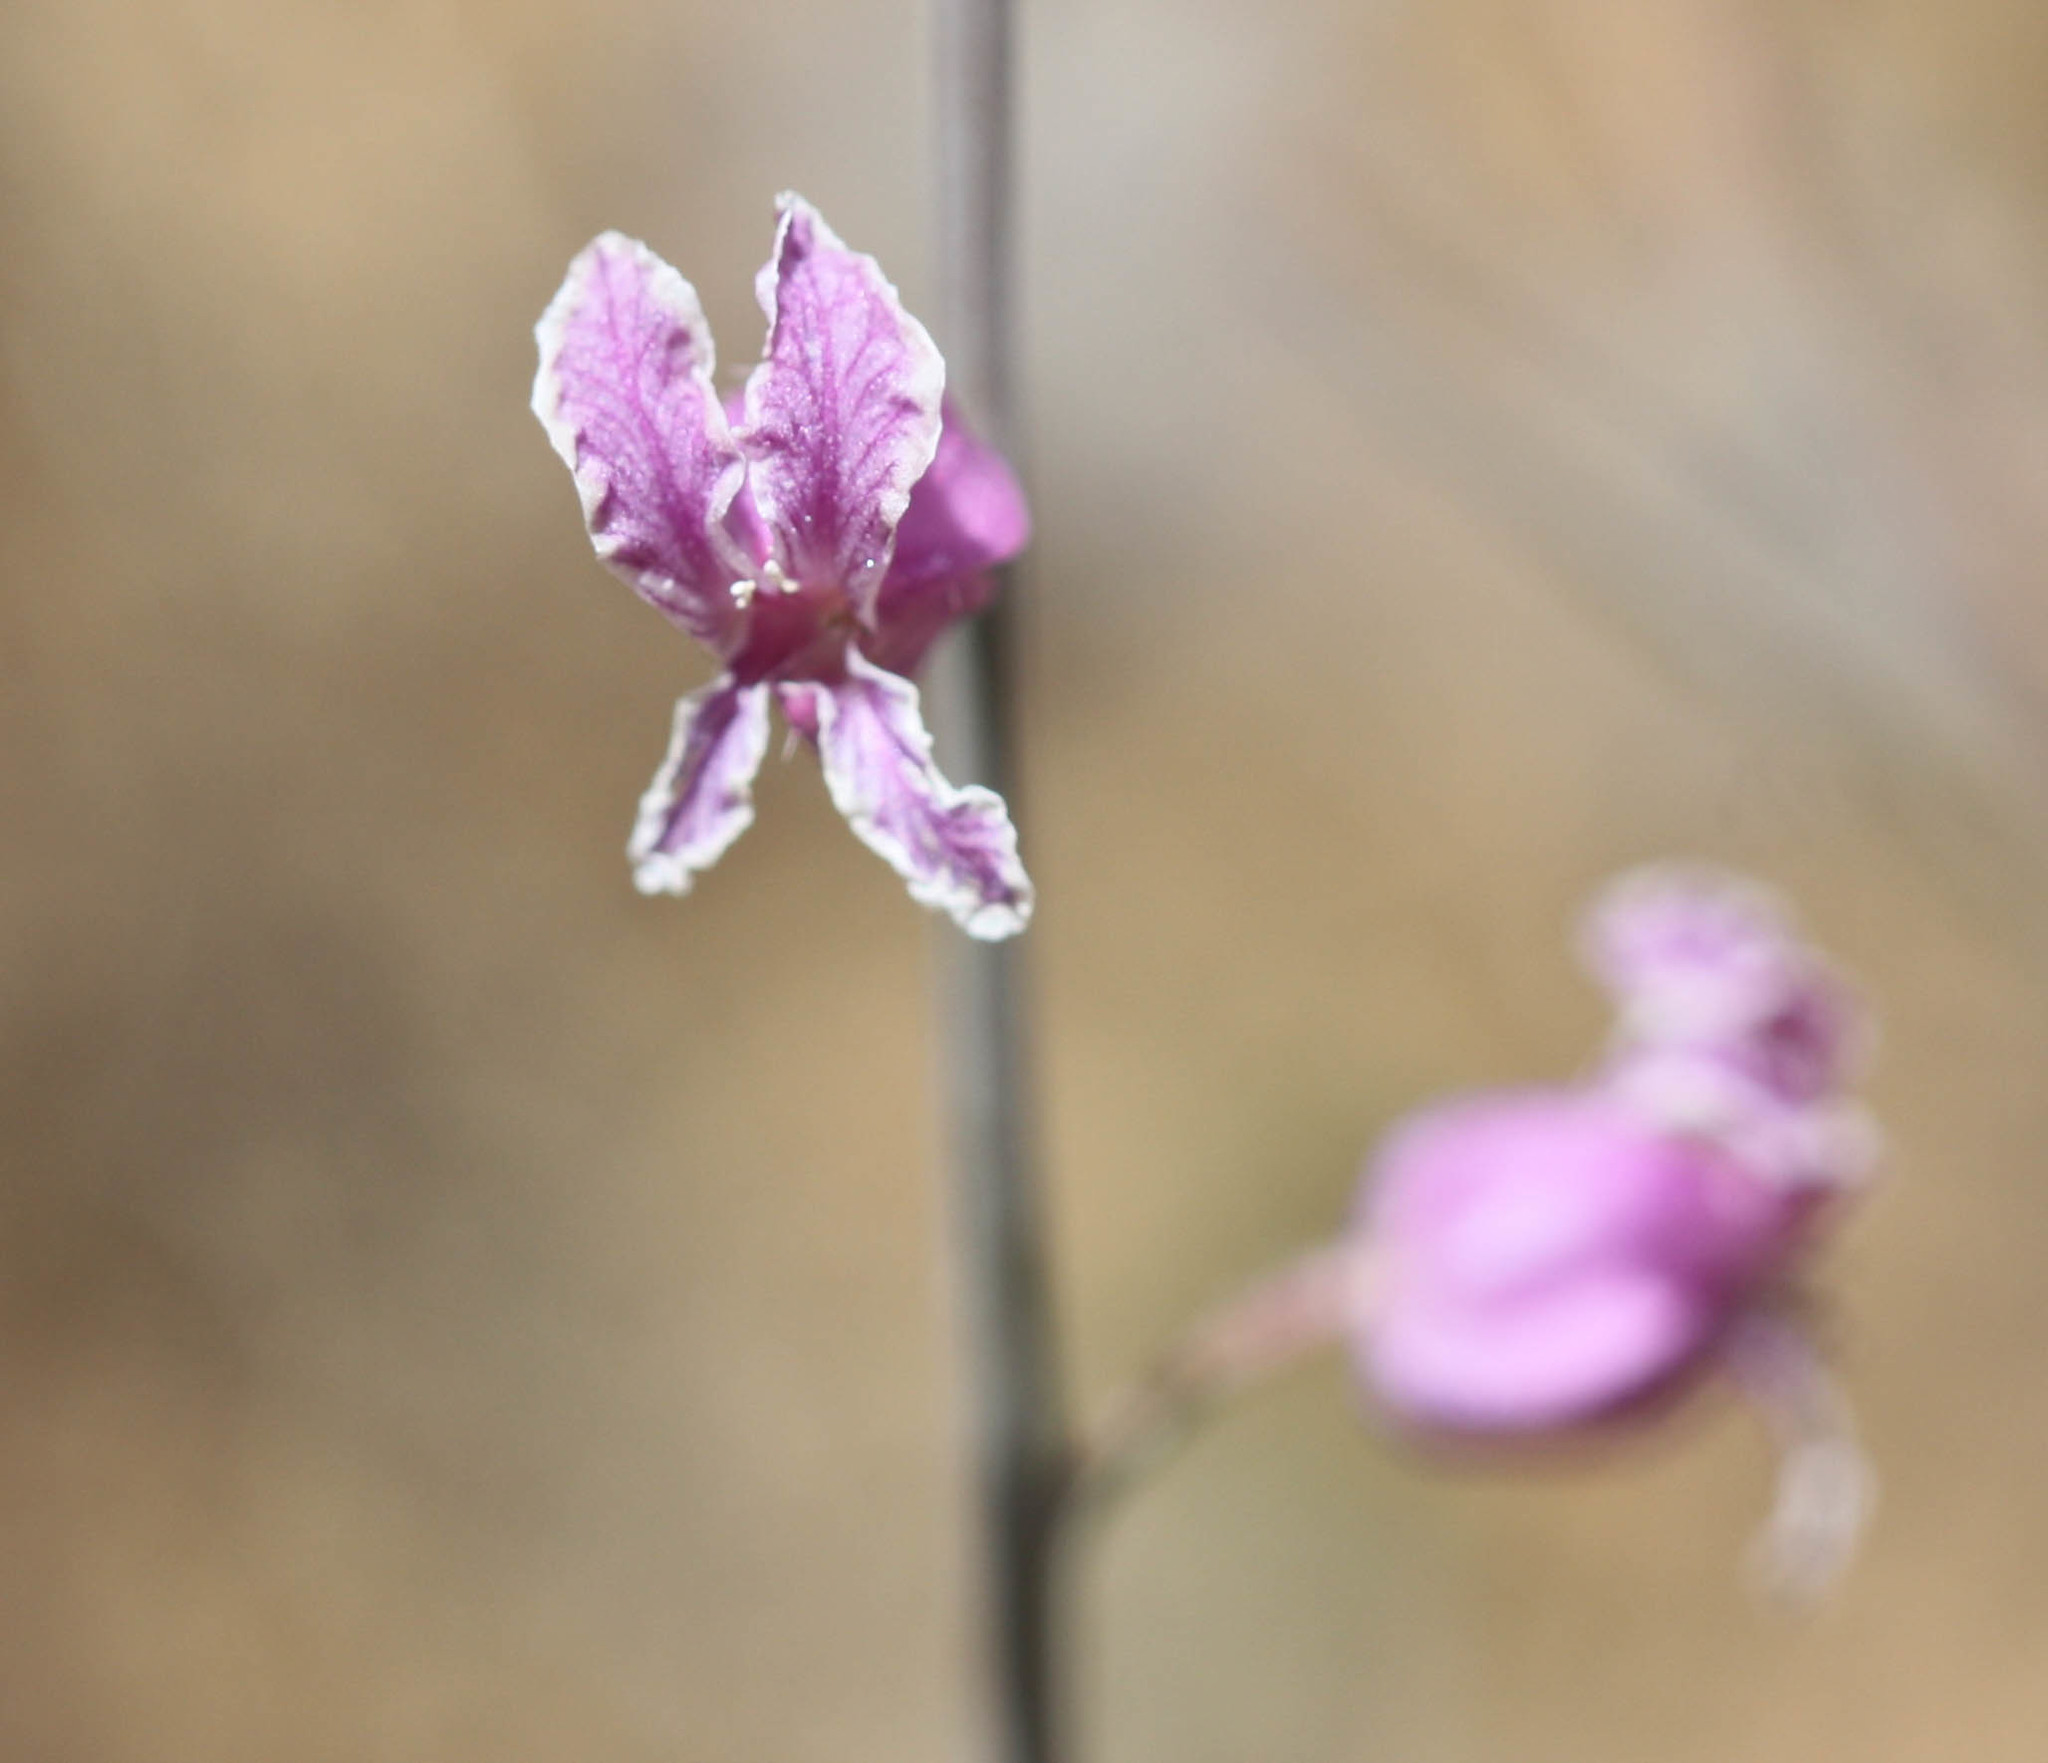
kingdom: Plantae
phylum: Tracheophyta
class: Magnoliopsida
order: Brassicales
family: Brassicaceae
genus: Streptanthus
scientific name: Streptanthus glandulosus
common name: Jewel-flower
